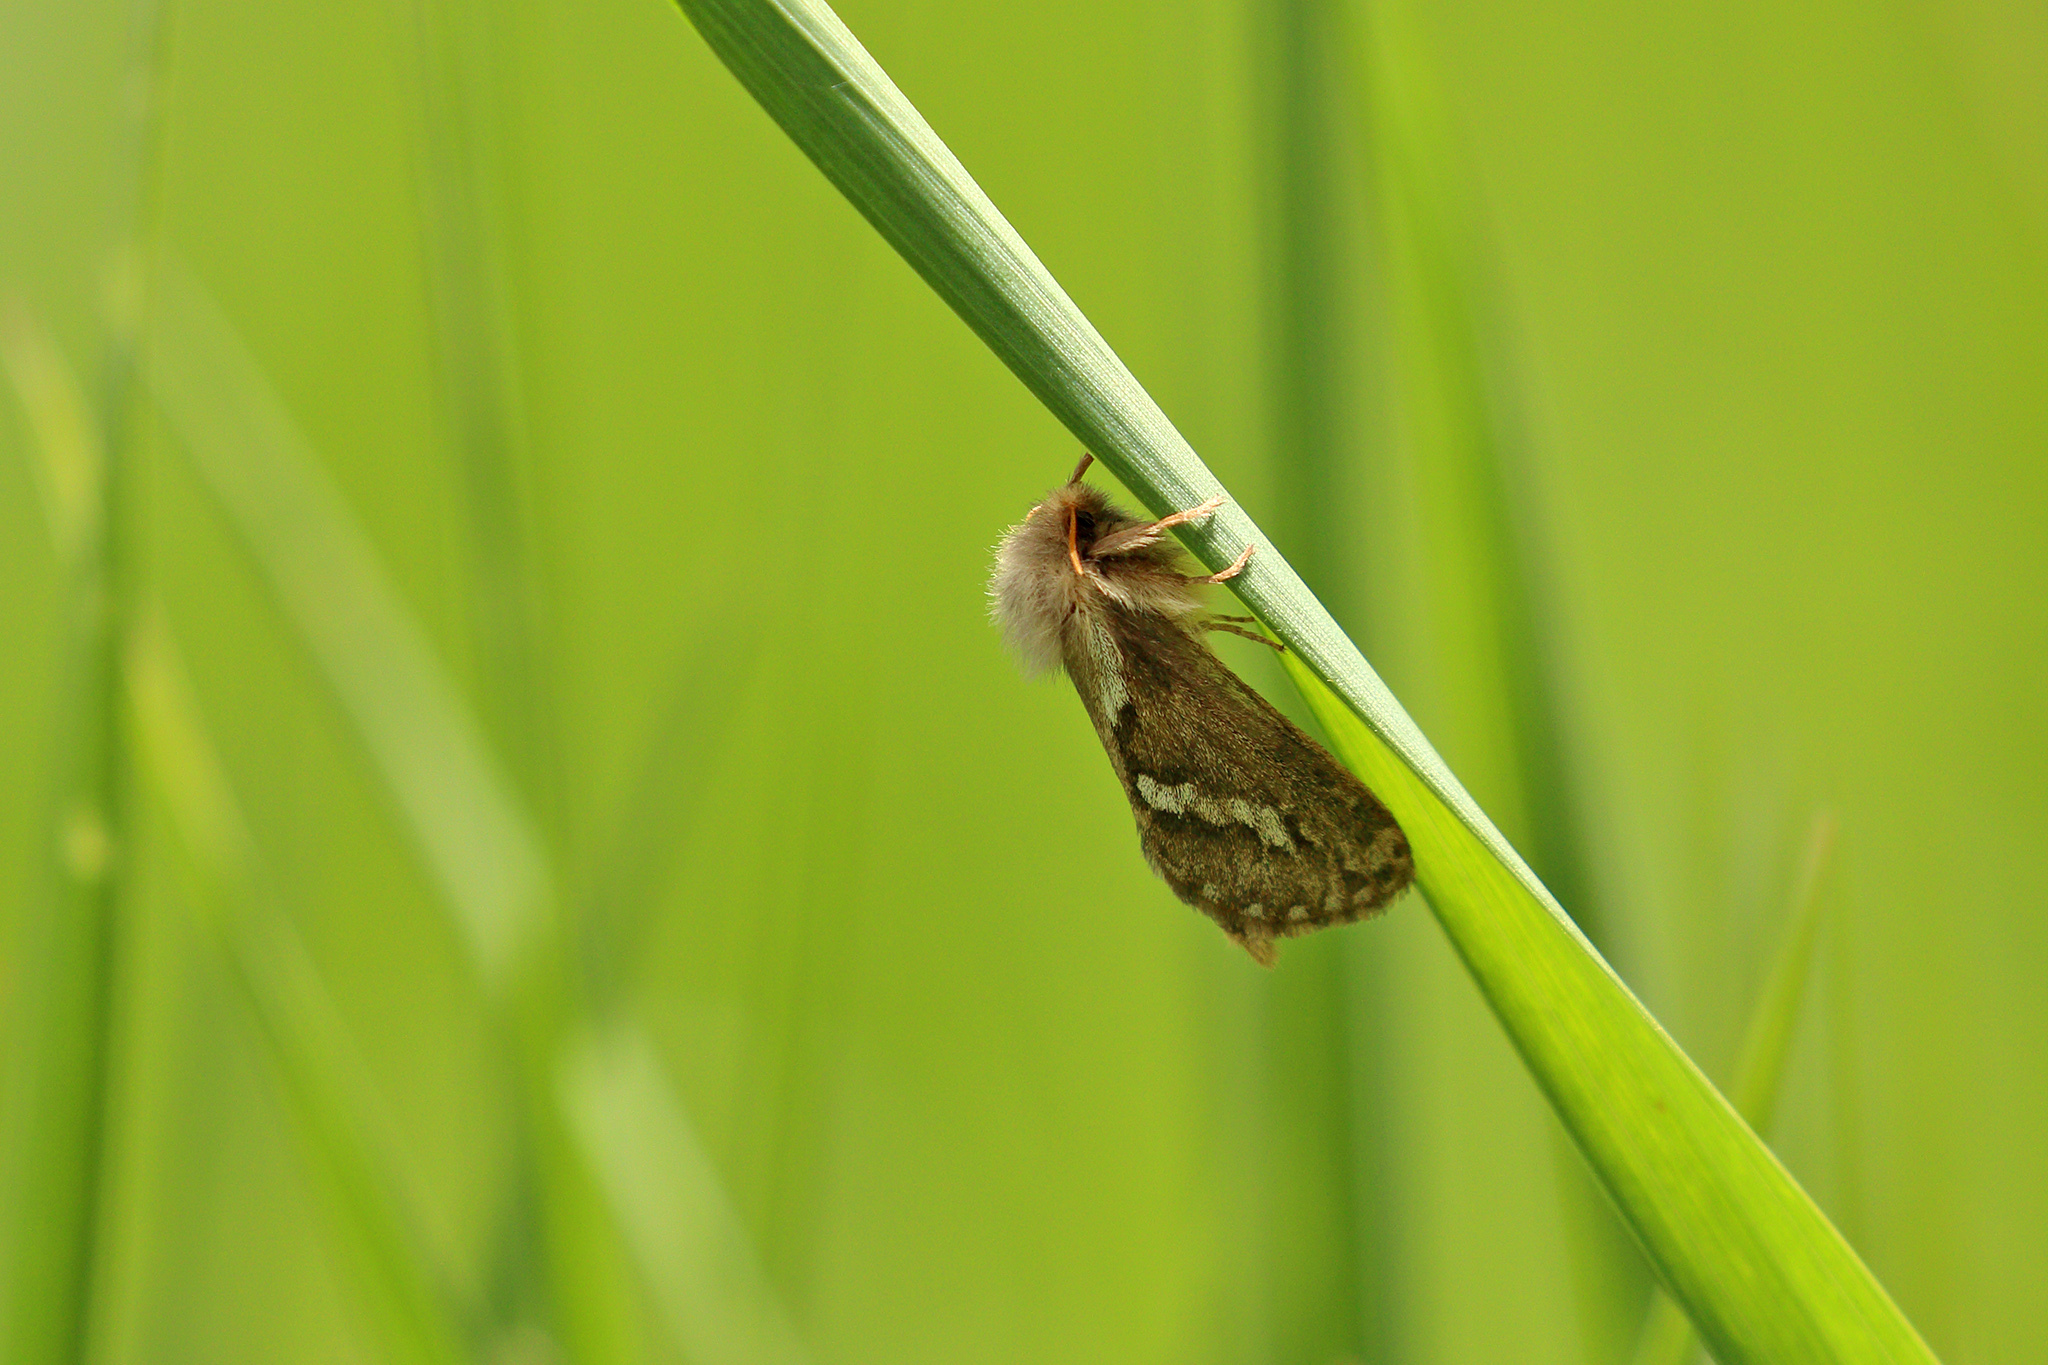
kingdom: Animalia
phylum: Arthropoda
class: Insecta
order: Lepidoptera
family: Hepialidae
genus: Korscheltellus
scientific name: Korscheltellus lupulina
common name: Common swift
